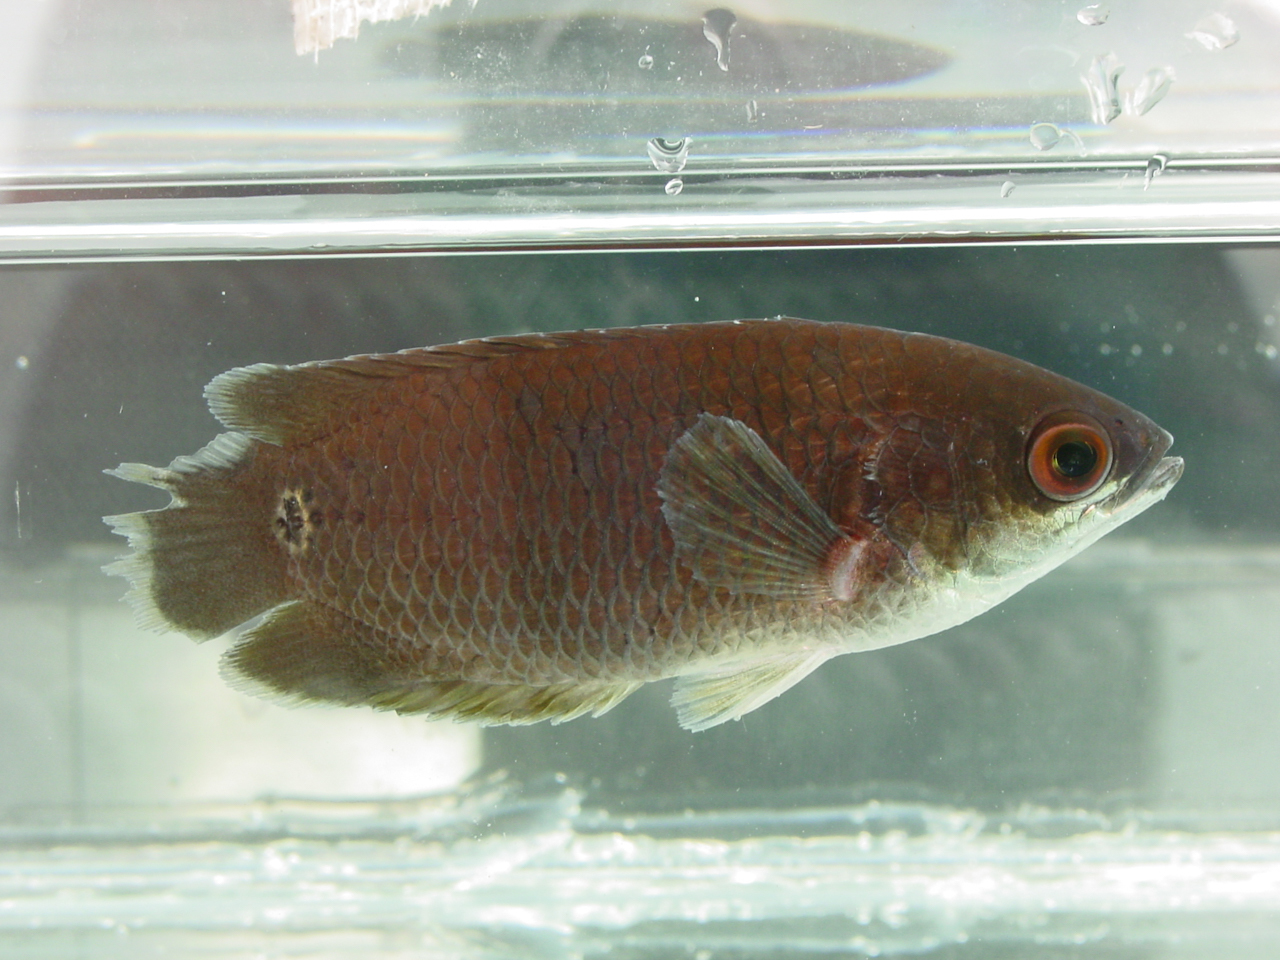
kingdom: Animalia
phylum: Chordata
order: Perciformes
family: Anabantidae
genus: Ctenopoma
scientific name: Ctenopoma ocellatum
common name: Bullseye ctenopoma
